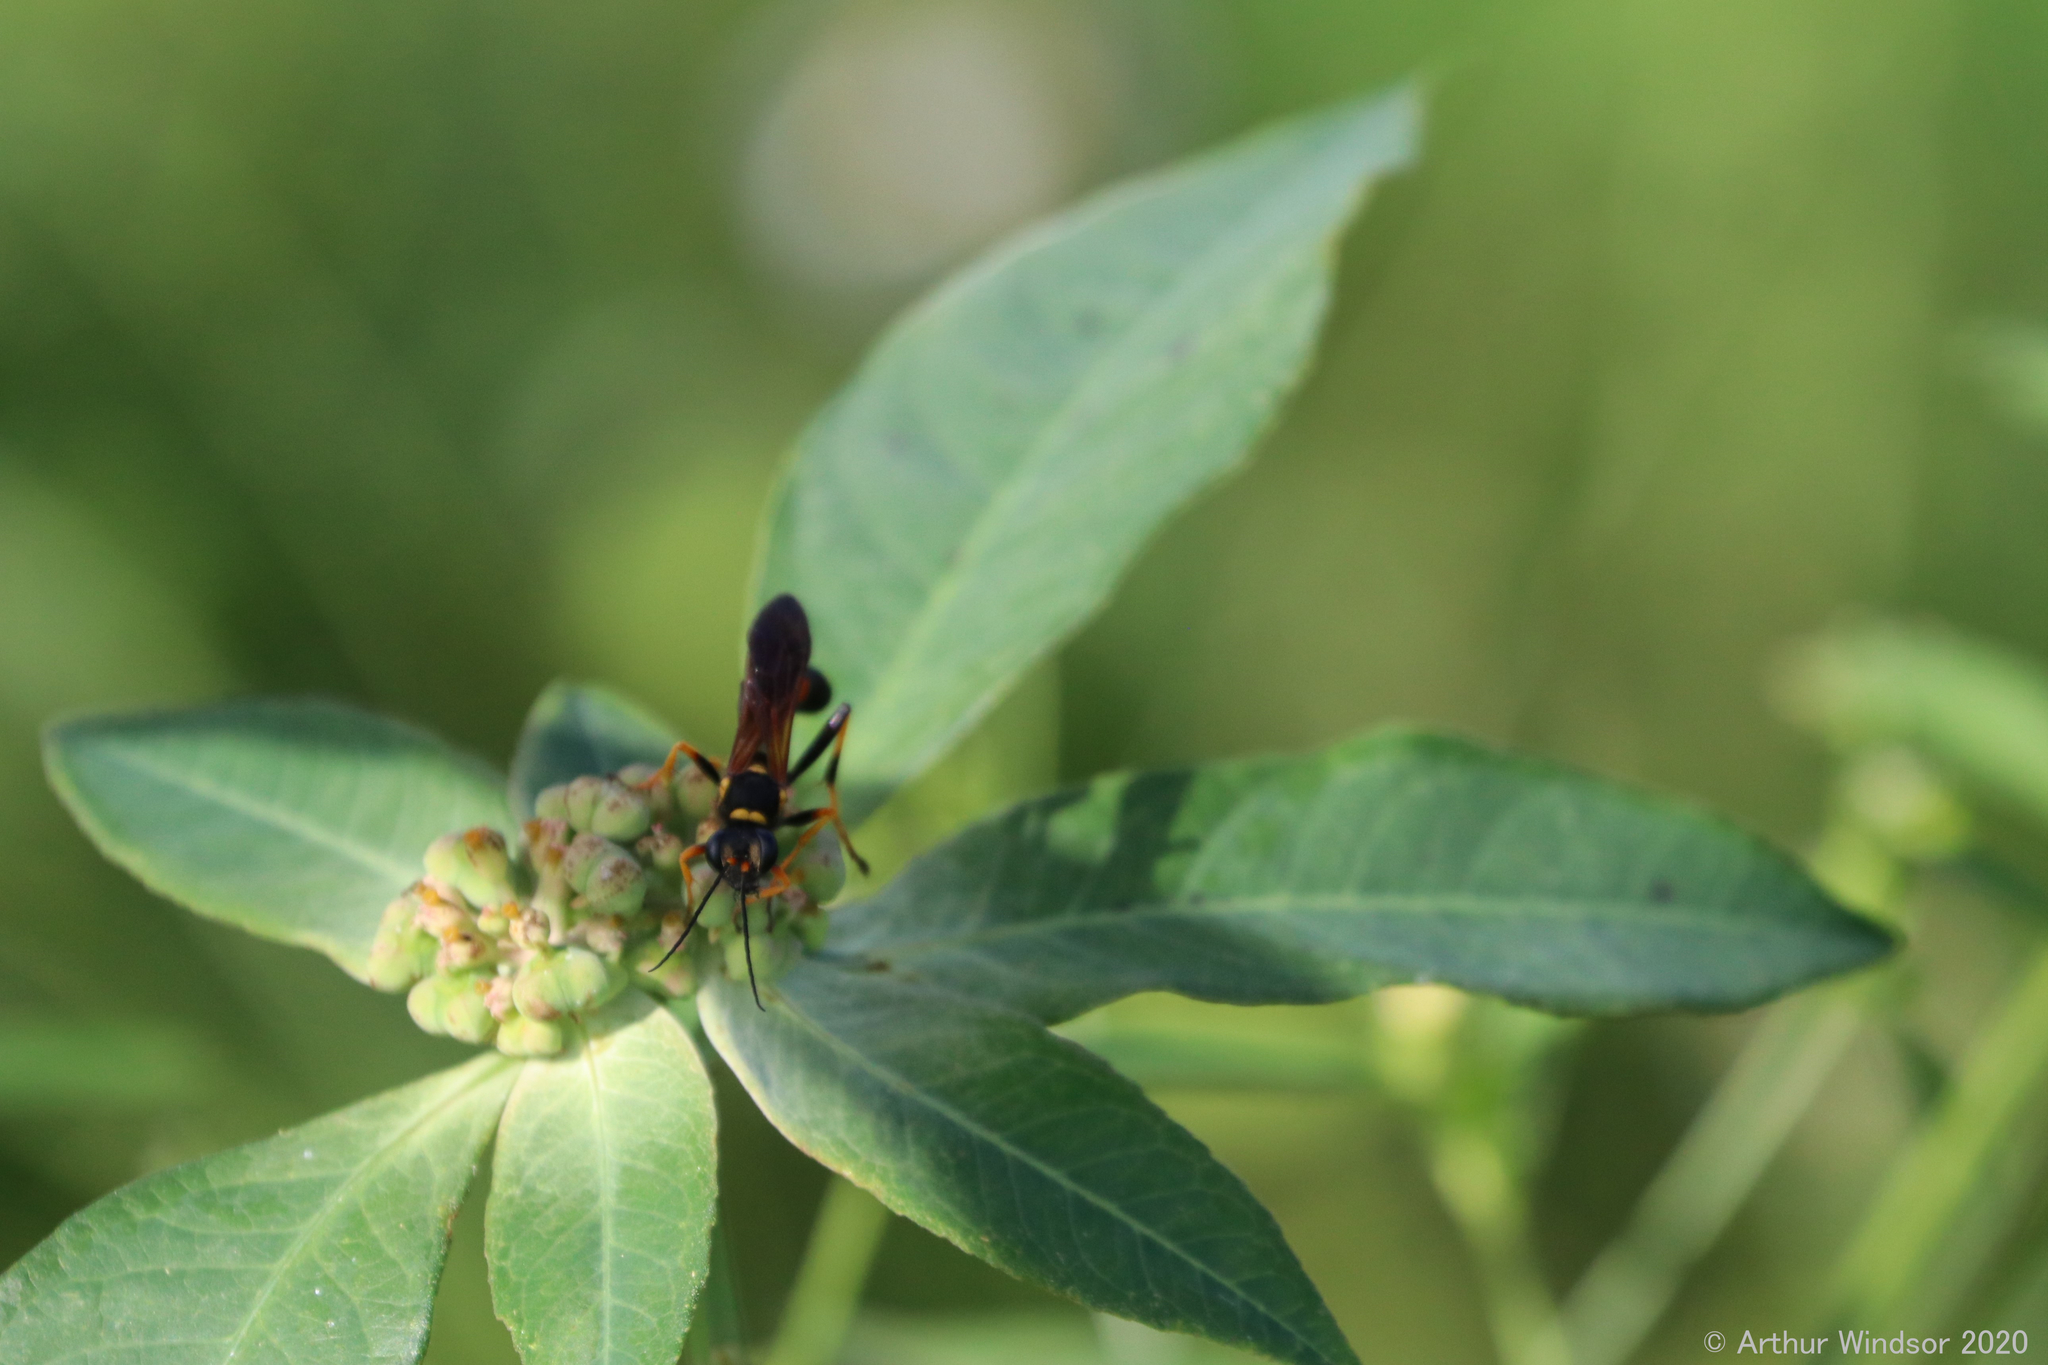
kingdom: Animalia
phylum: Arthropoda
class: Insecta
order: Hymenoptera
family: Sphecidae
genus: Sceliphron
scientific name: Sceliphron caementarium
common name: Mud dauber
